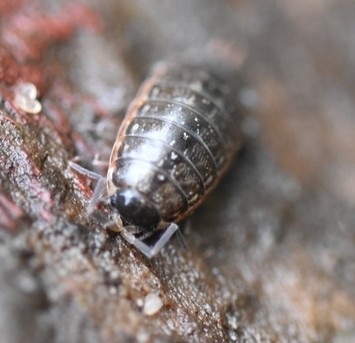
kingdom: Animalia
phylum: Arthropoda
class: Malacostraca
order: Isopoda
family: Philosciidae
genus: Philoscia
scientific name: Philoscia muscorum
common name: Common striped woodlouse
